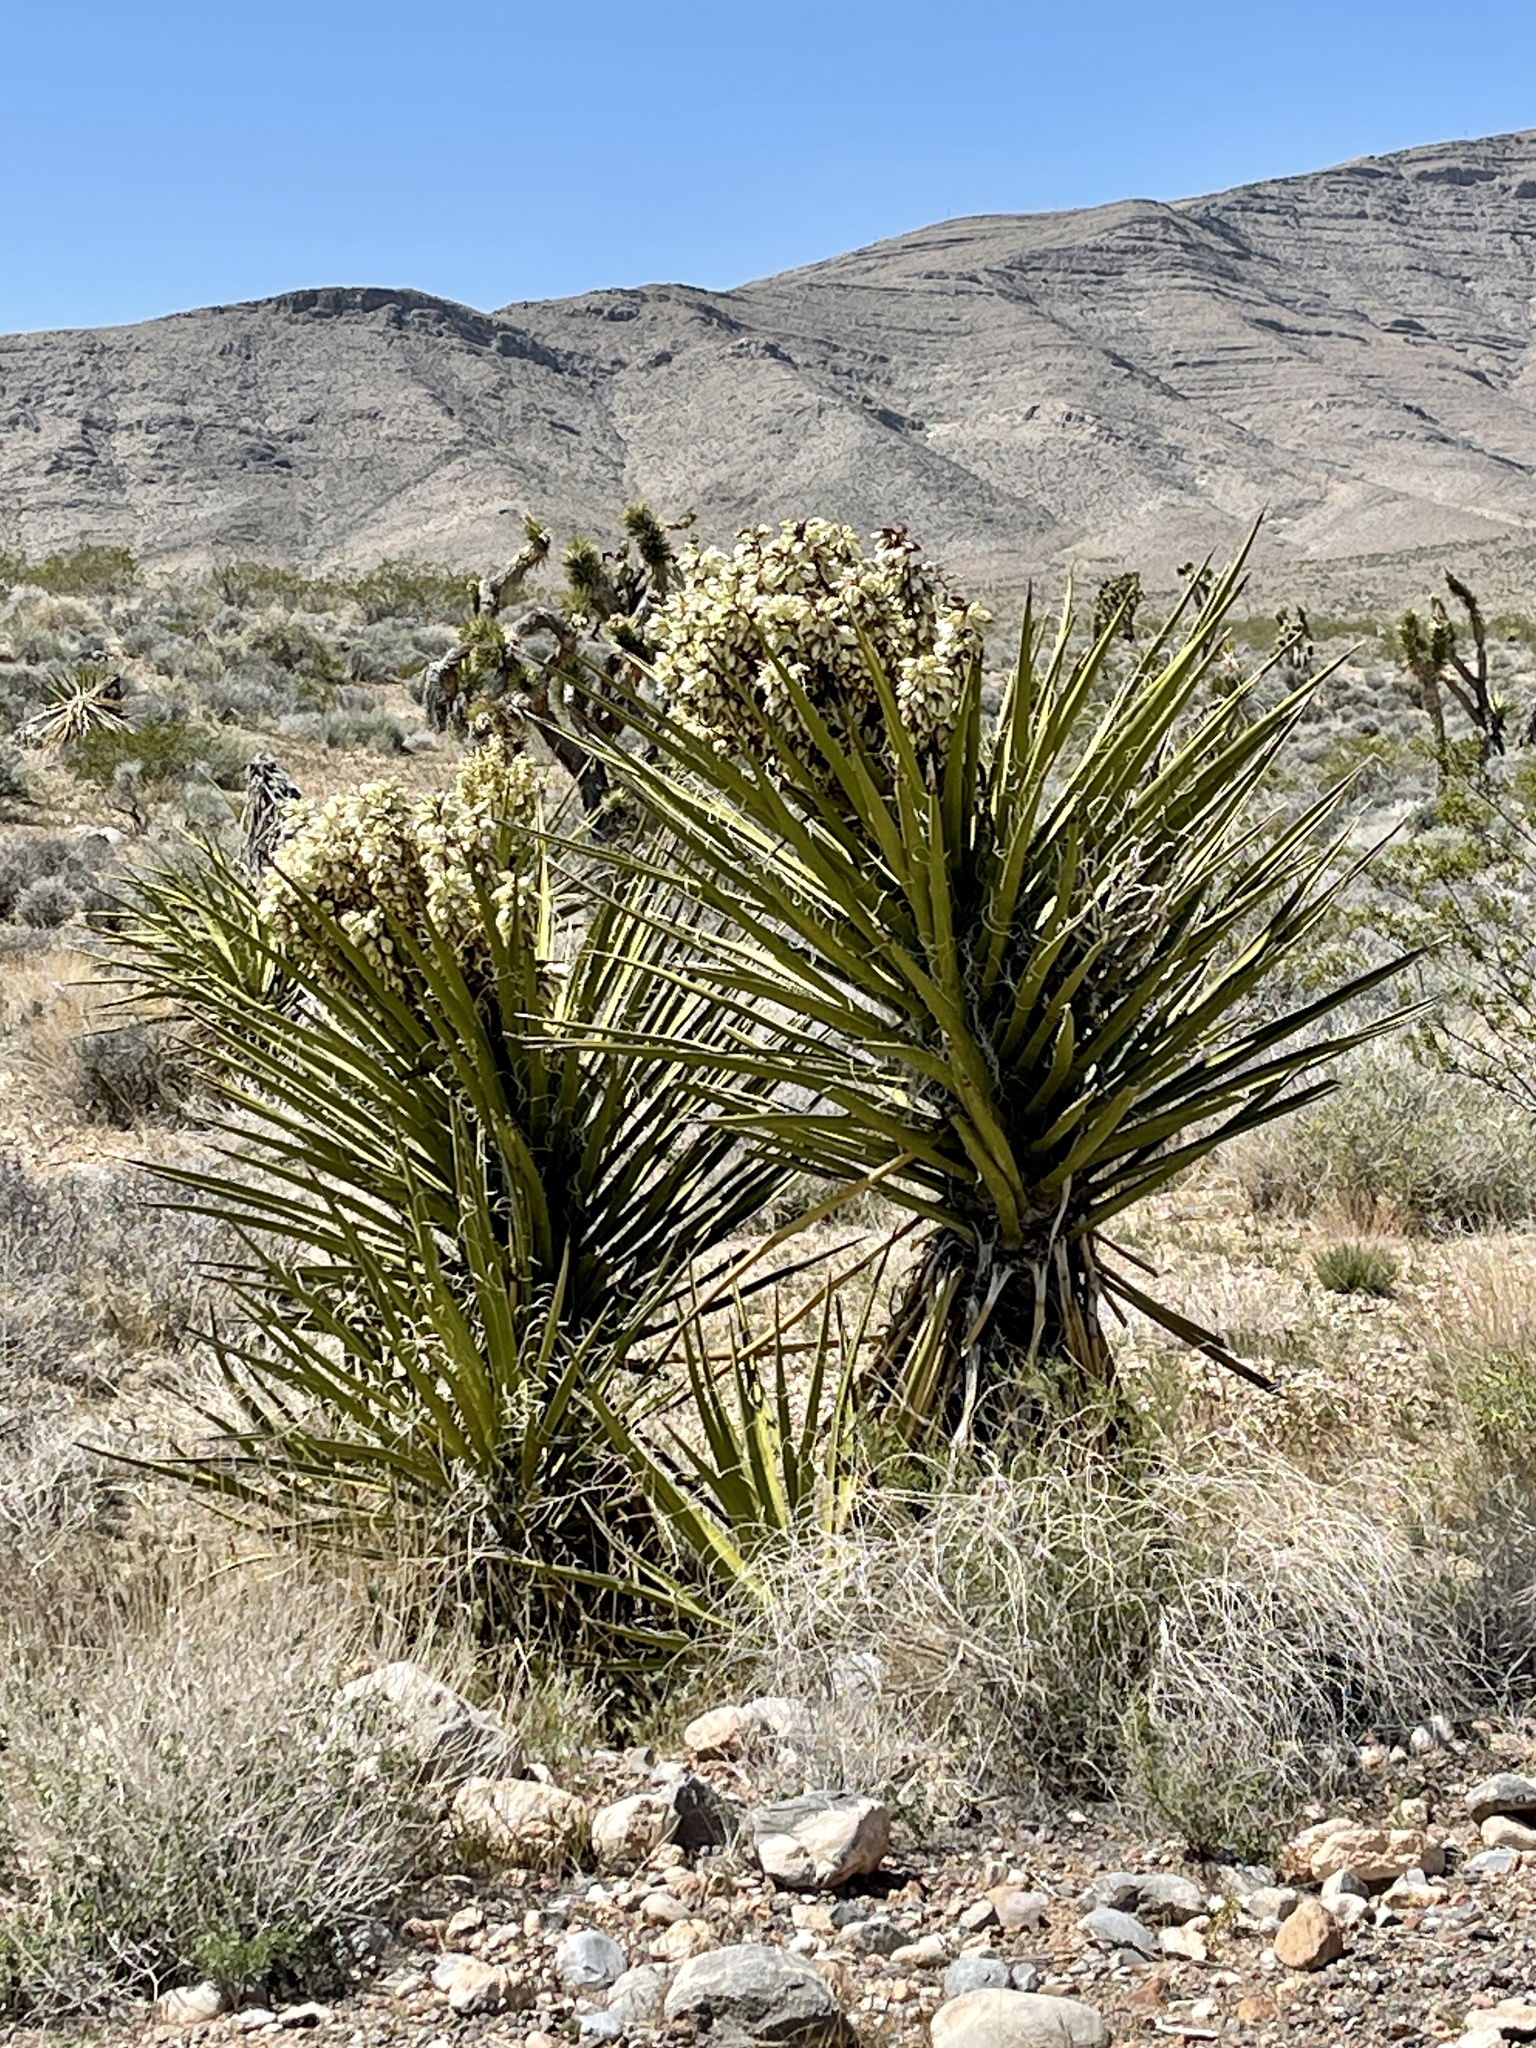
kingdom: Plantae
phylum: Tracheophyta
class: Liliopsida
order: Asparagales
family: Asparagaceae
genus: Yucca
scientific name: Yucca schidigera
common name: Mojave yucca
